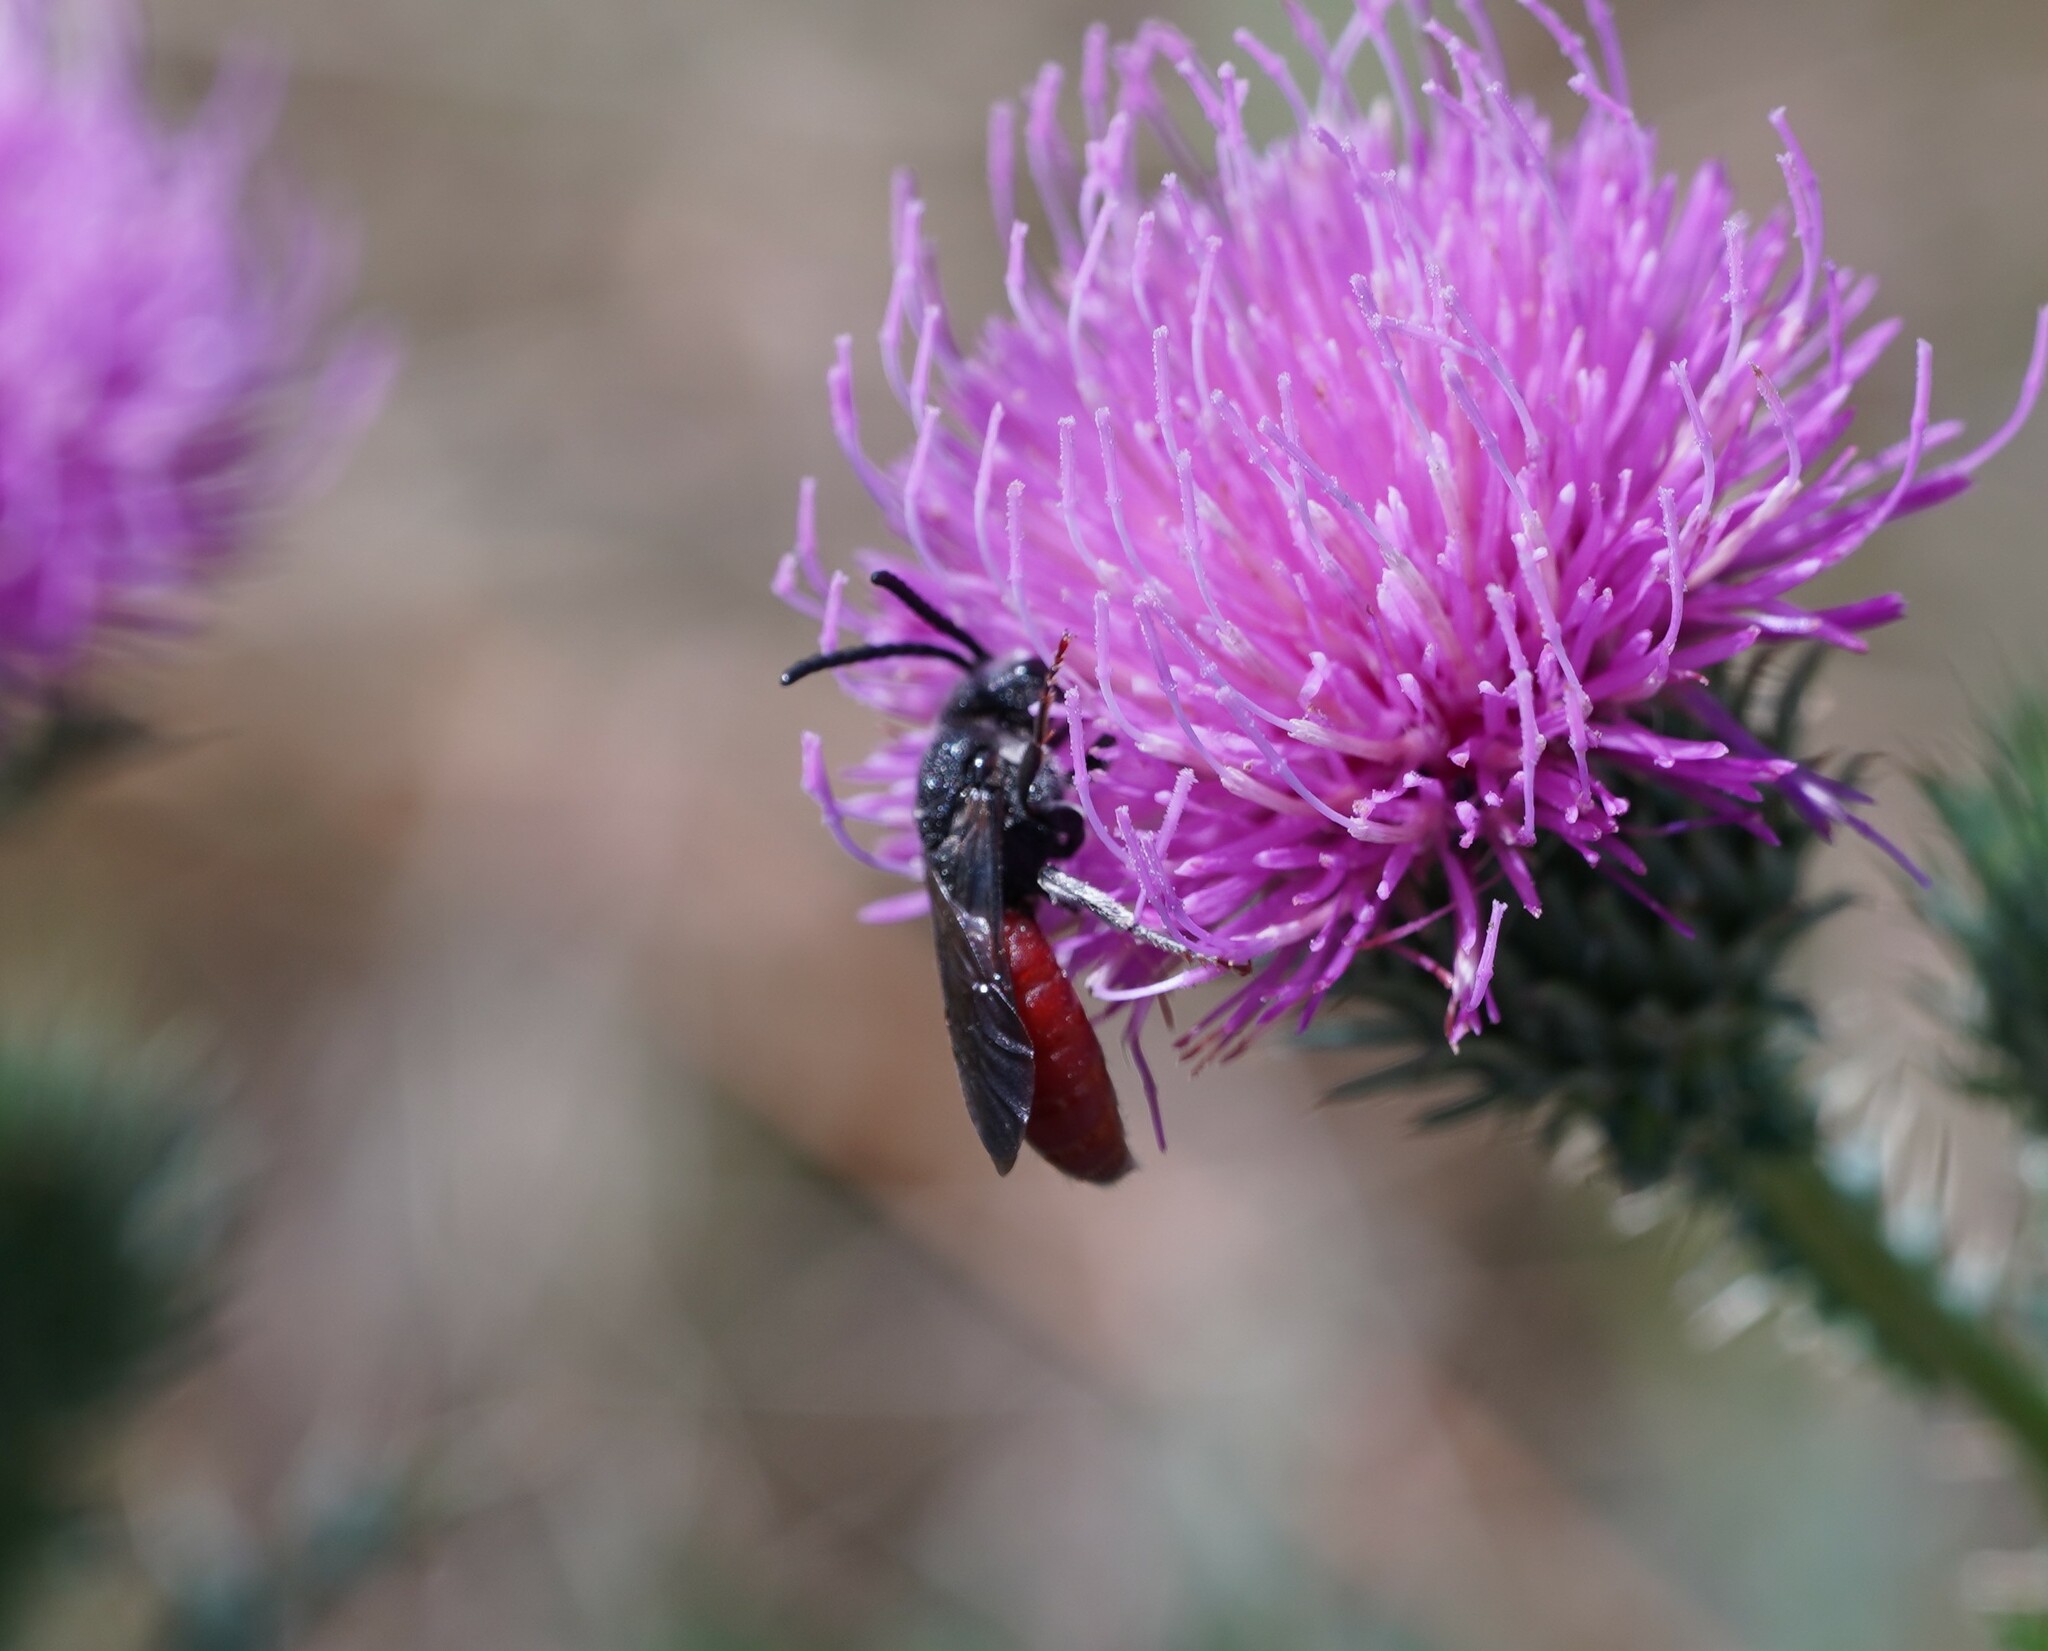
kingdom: Animalia
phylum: Arthropoda
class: Insecta
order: Hymenoptera
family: Halictidae
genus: Sphecodes
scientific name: Sphecodes albilabris
